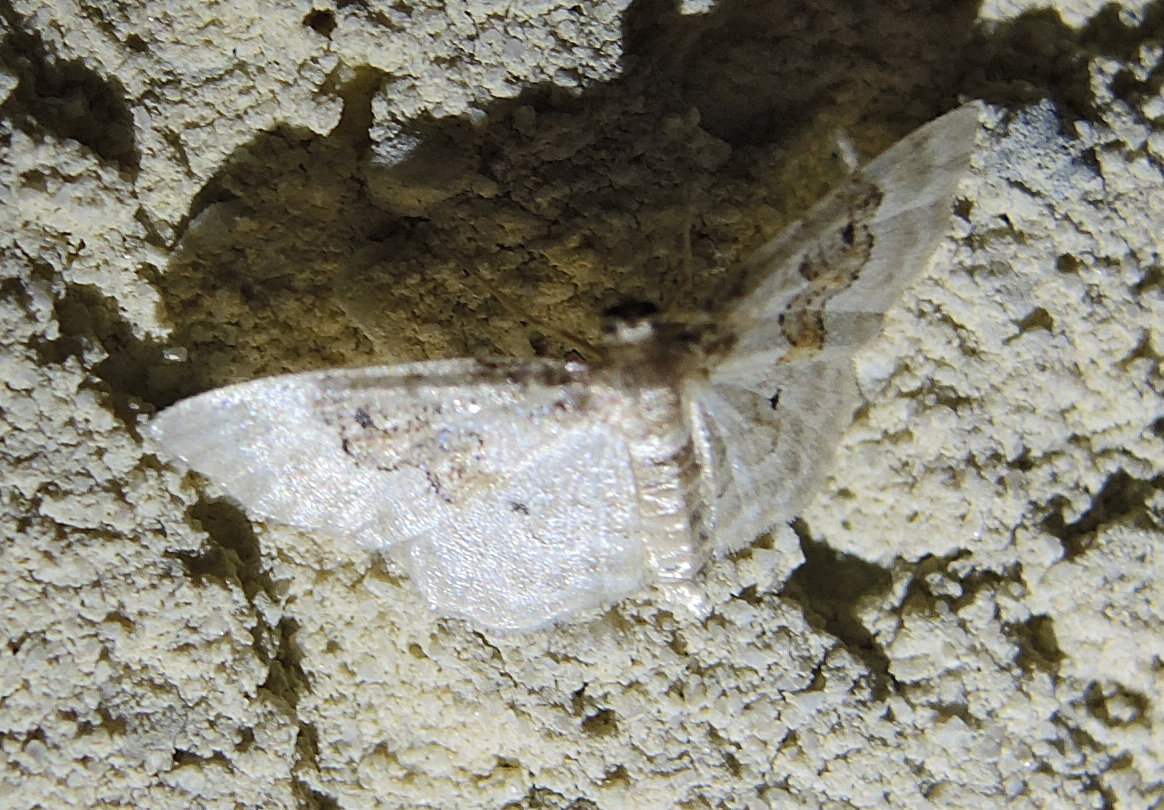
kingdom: Animalia
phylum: Arthropoda
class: Insecta
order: Lepidoptera
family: Geometridae
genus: Idaea
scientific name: Idaea rusticata
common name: Least carpet
